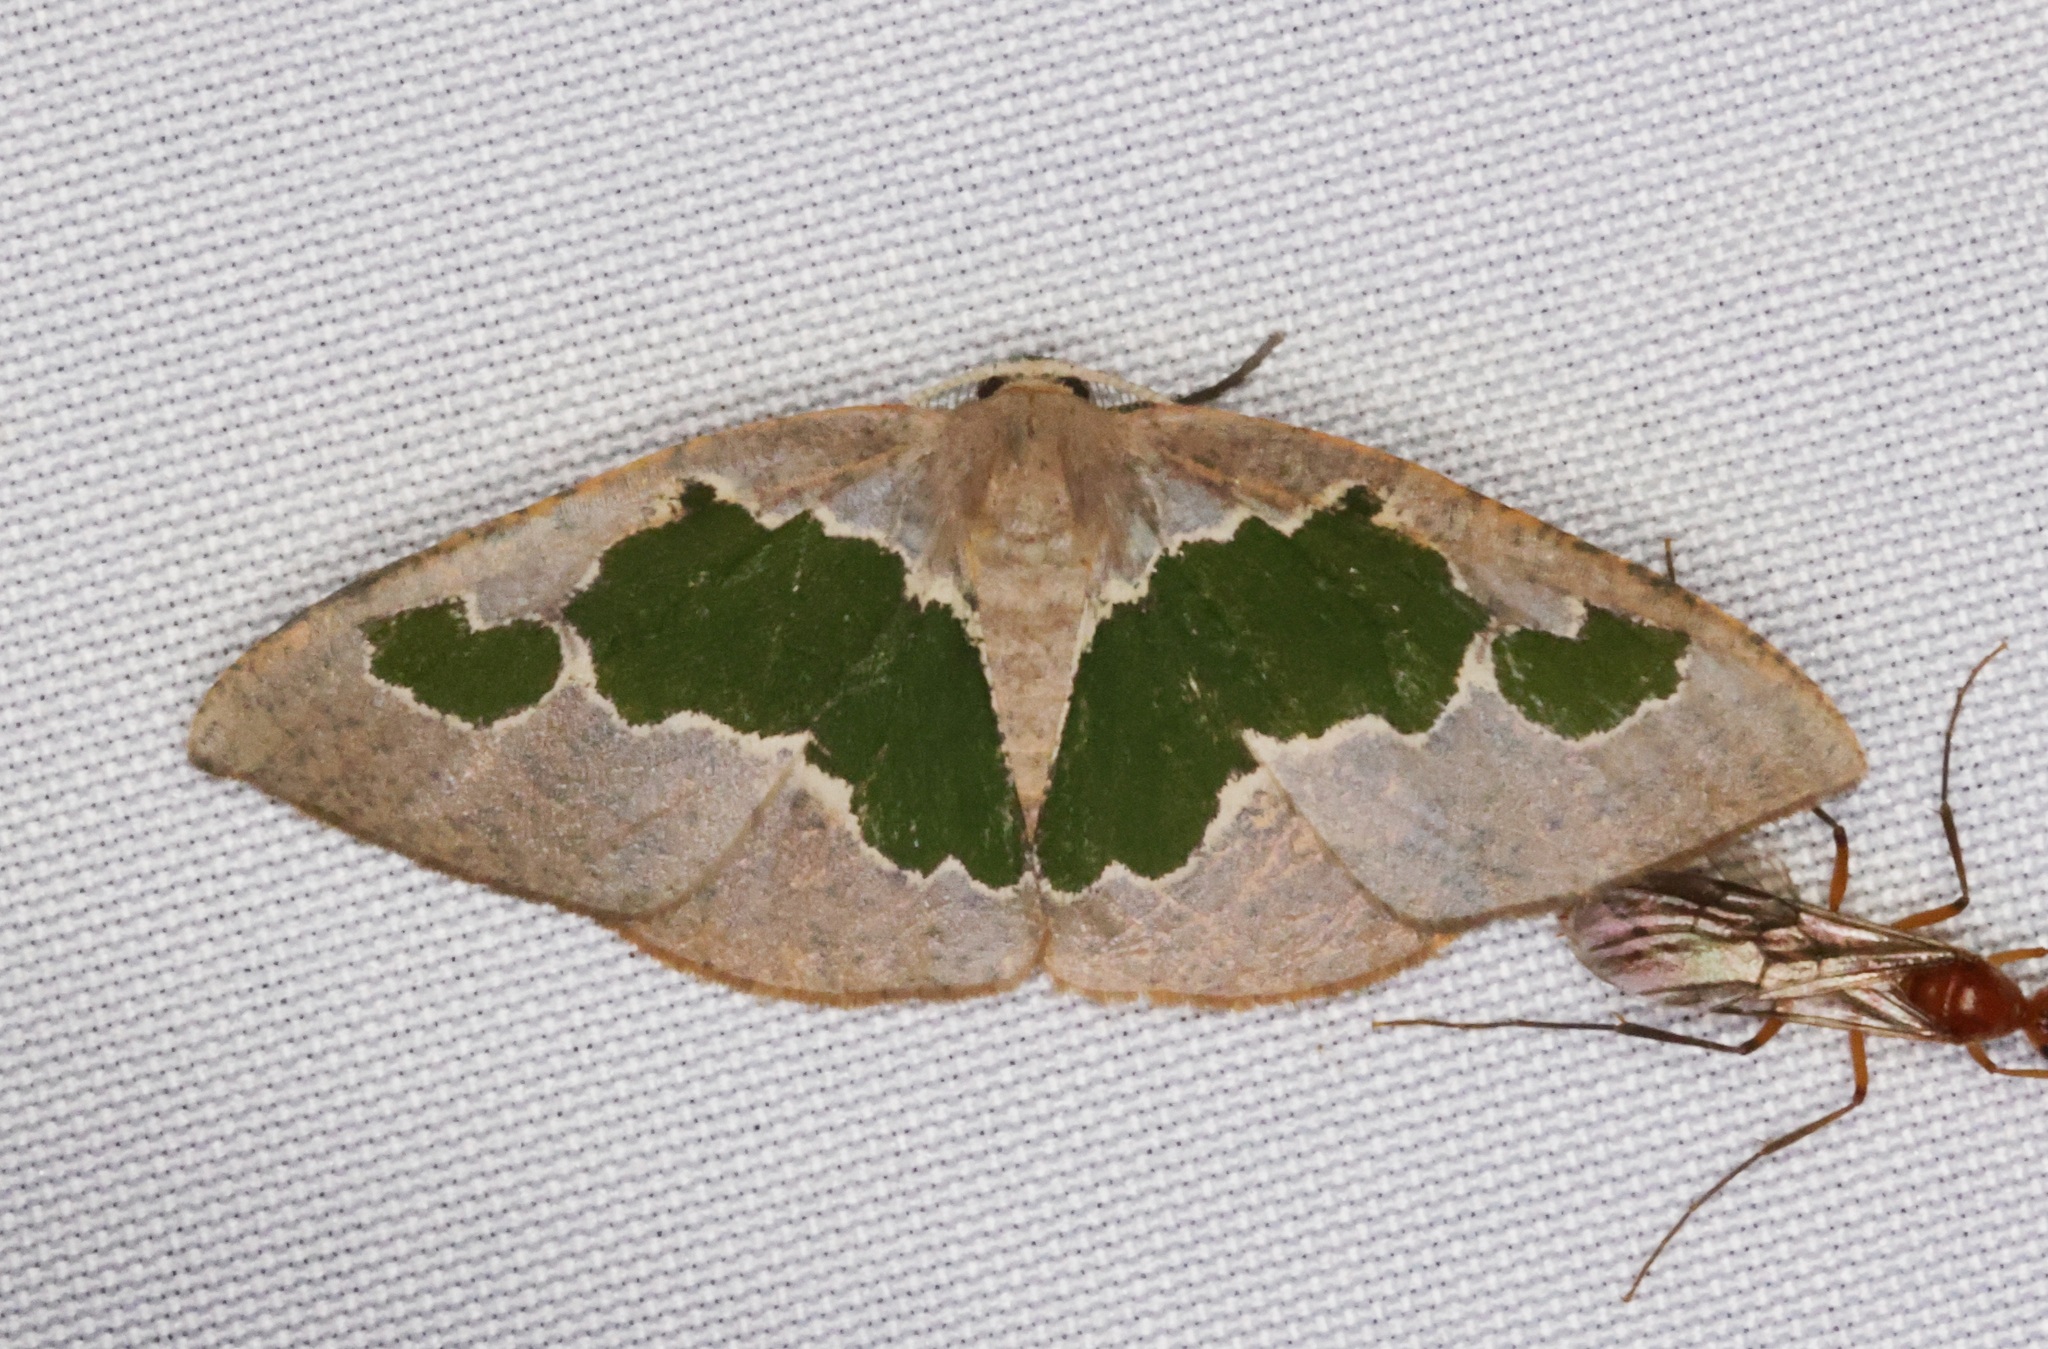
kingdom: Animalia
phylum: Arthropoda
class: Insecta
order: Lepidoptera
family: Geometridae
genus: Celenna
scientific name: Celenna festivaria
